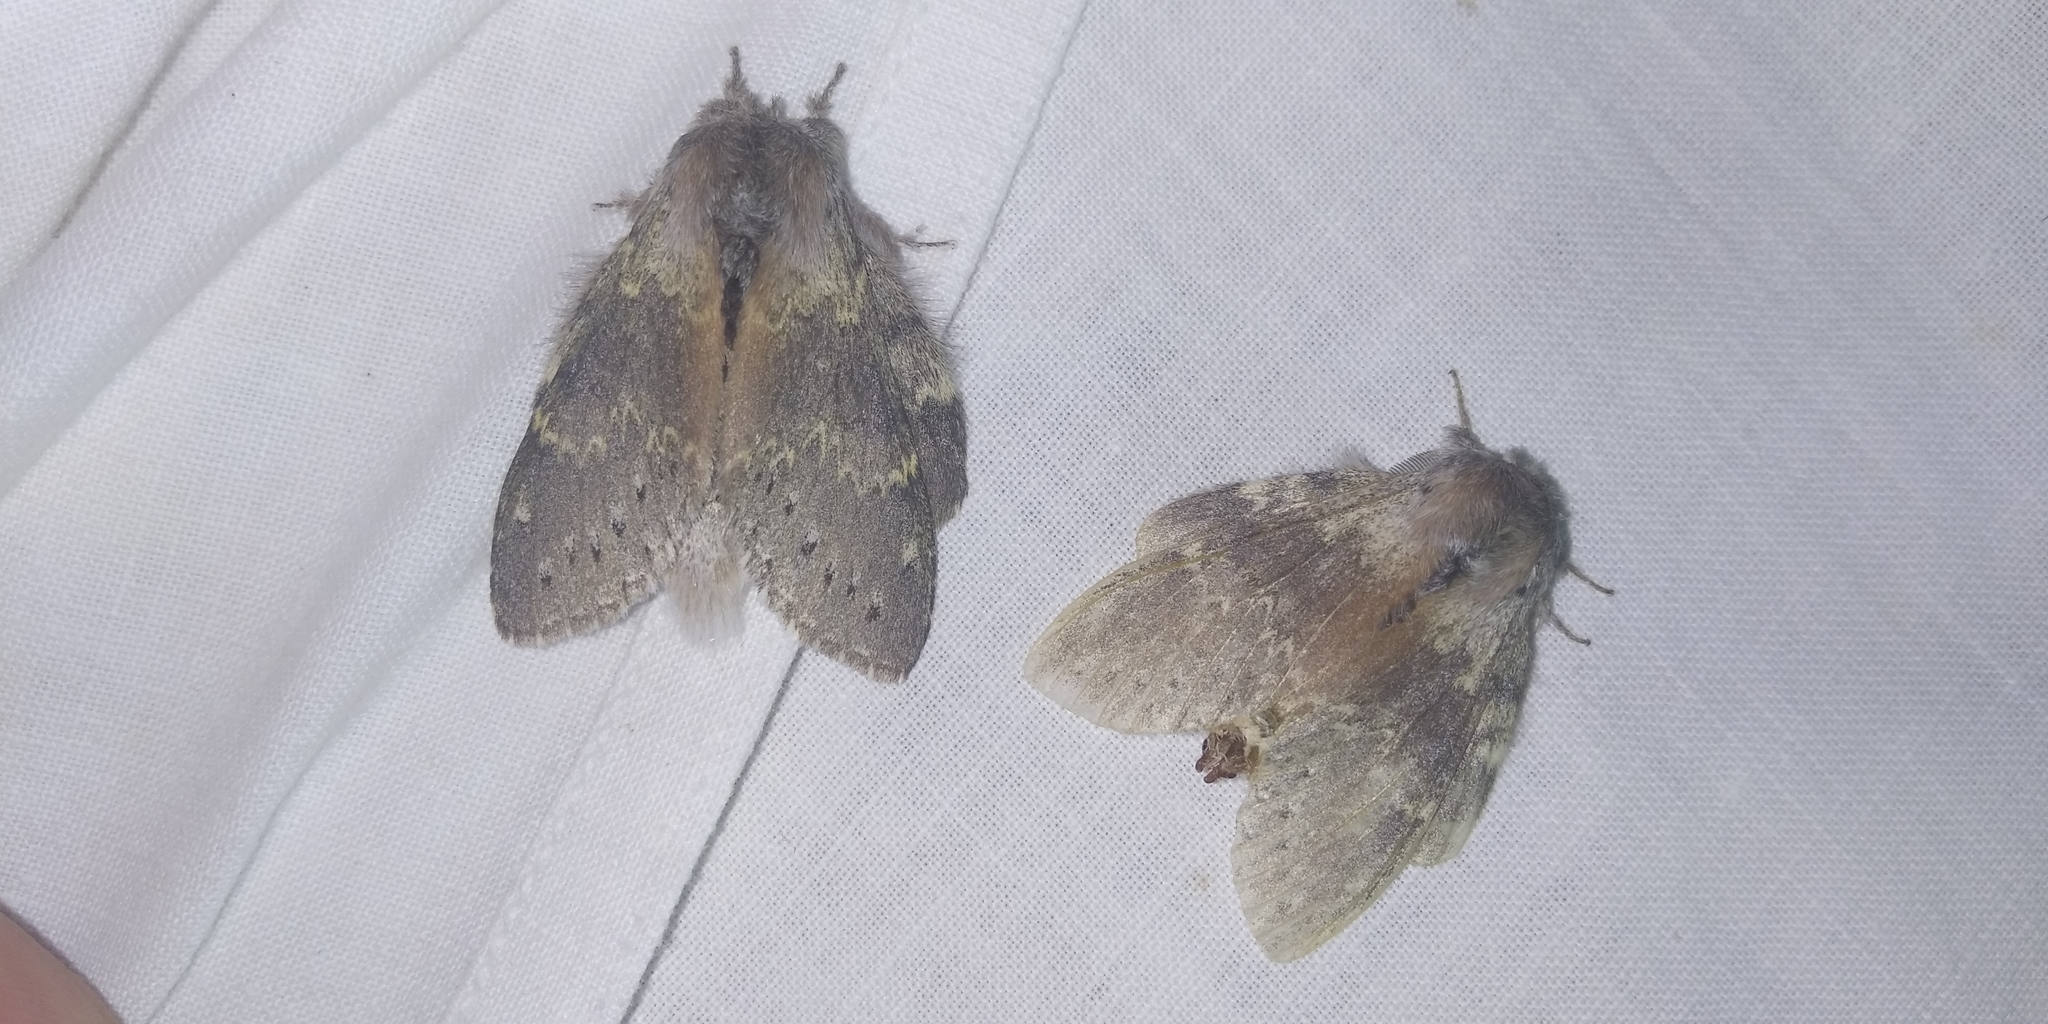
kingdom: Animalia
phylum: Arthropoda
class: Insecta
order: Lepidoptera
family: Notodontidae
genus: Stauropus
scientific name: Stauropus fagi
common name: Lobster moth
